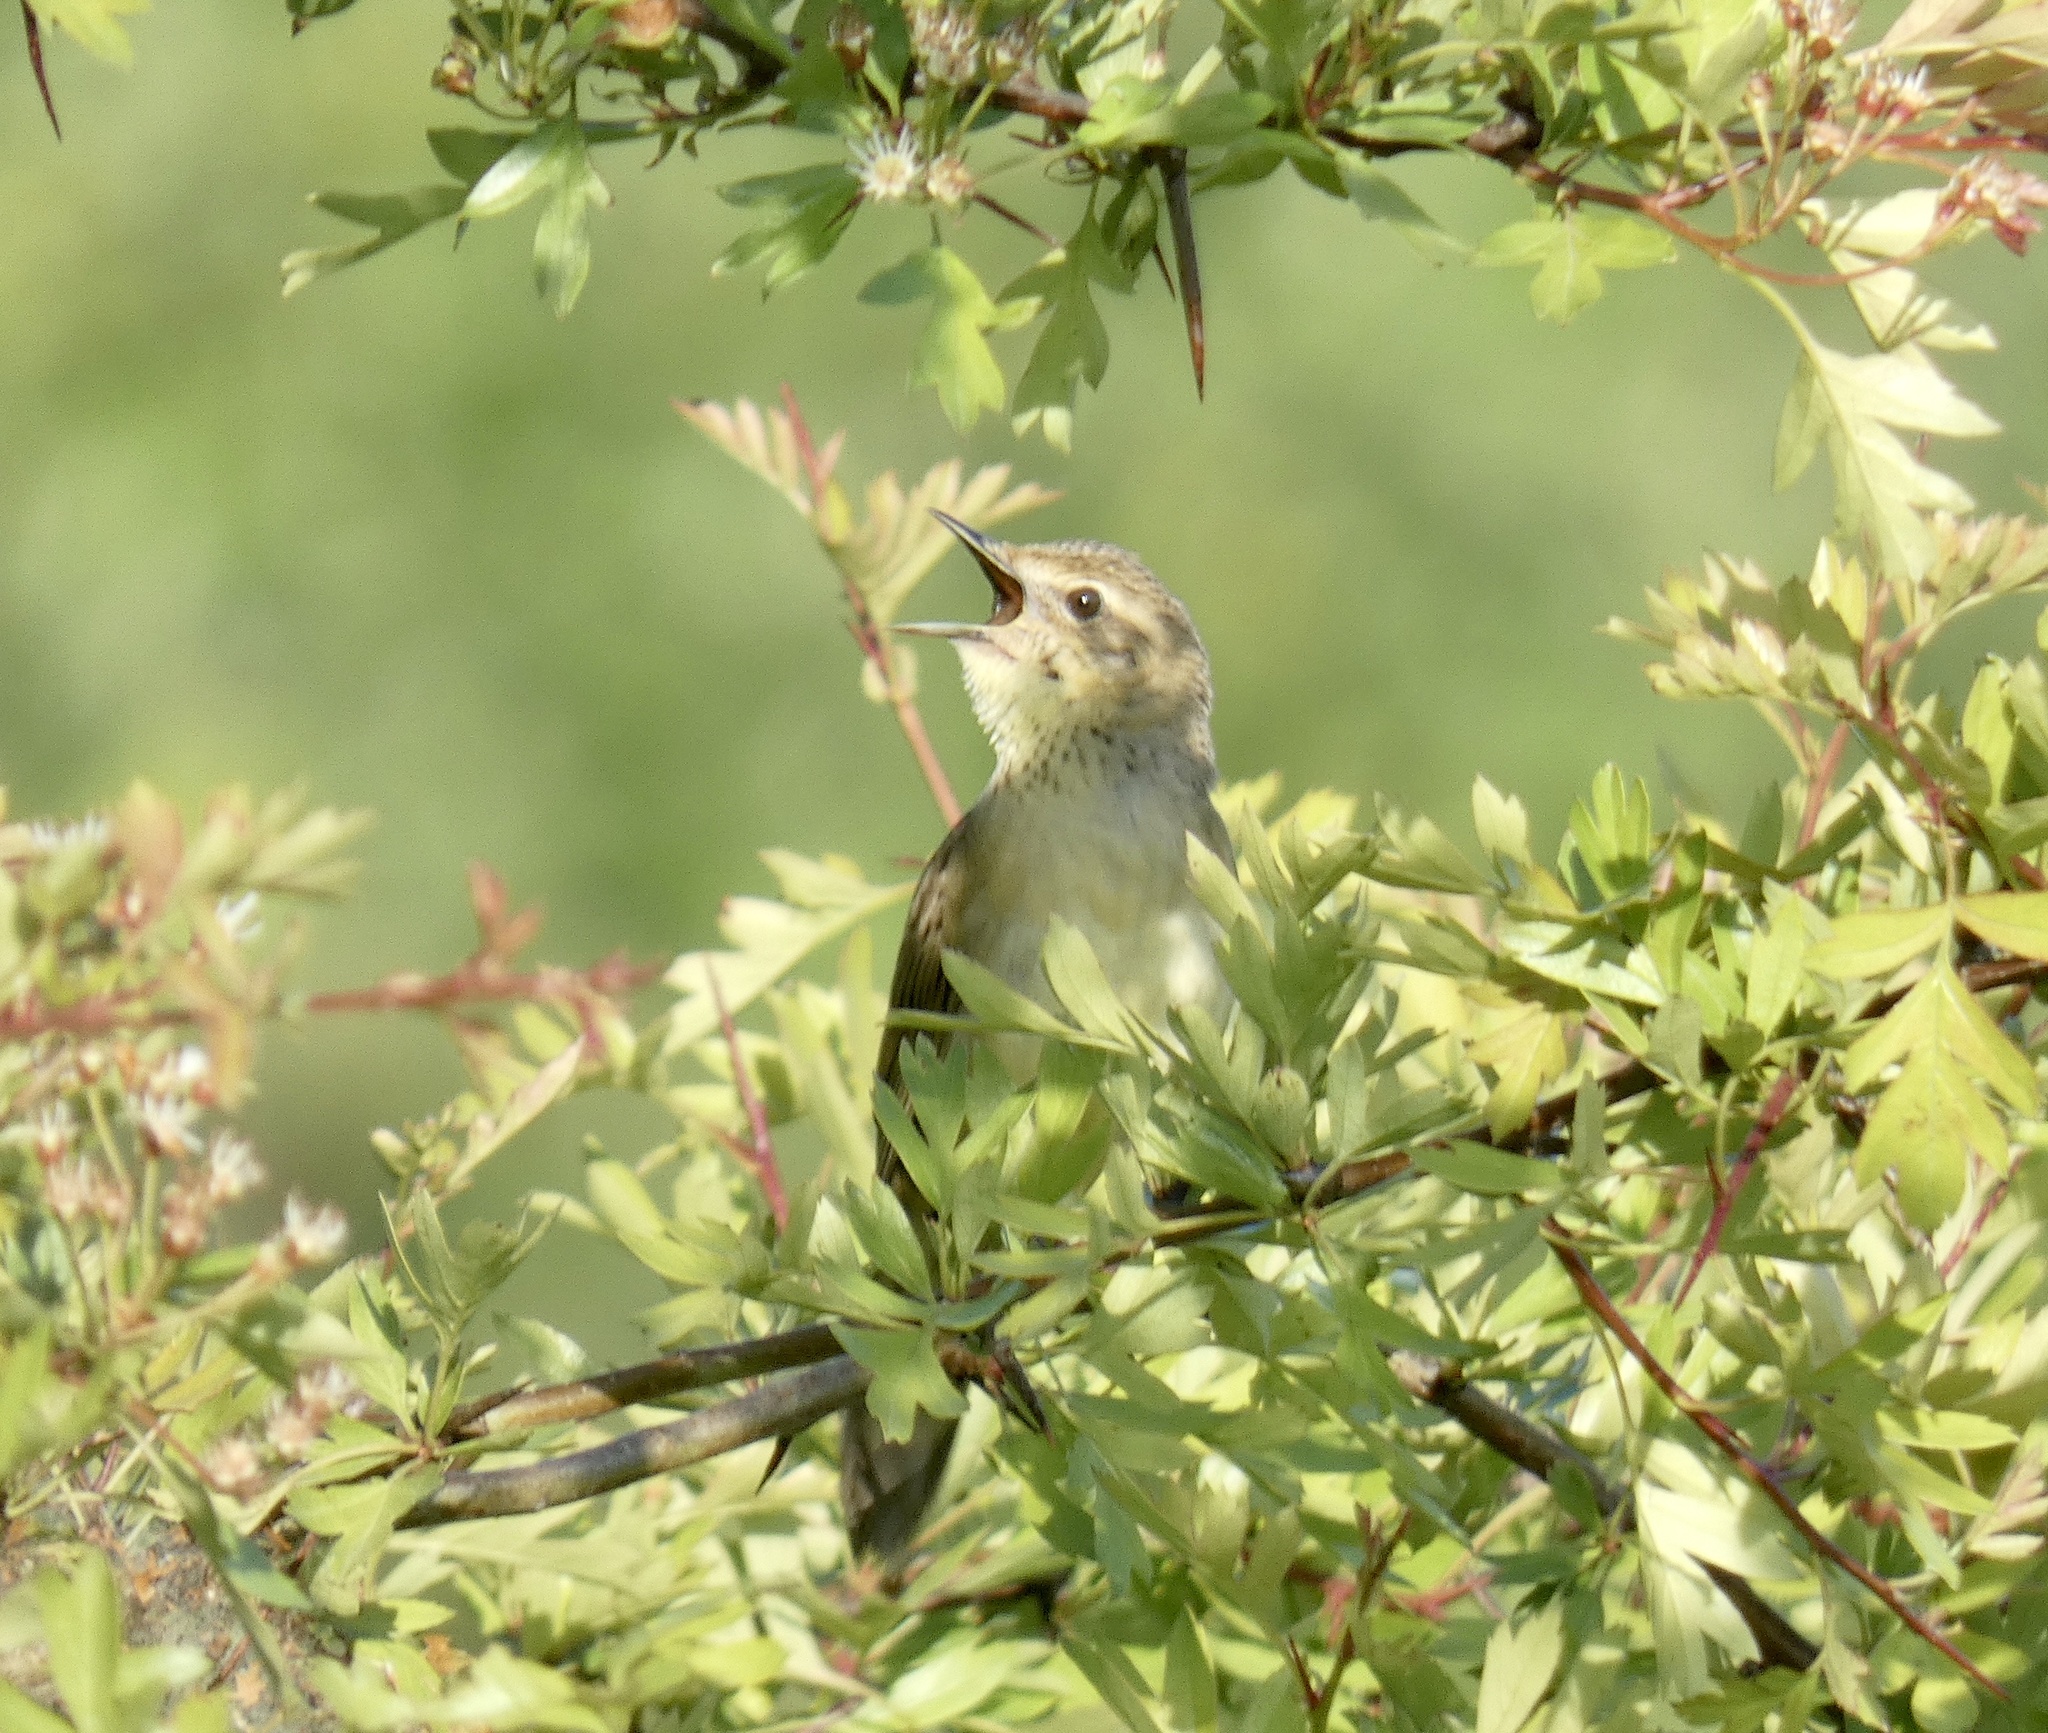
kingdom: Animalia
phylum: Chordata
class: Aves
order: Passeriformes
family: Locustellidae
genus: Locustella
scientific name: Locustella naevia
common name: Common grasshopper warbler
